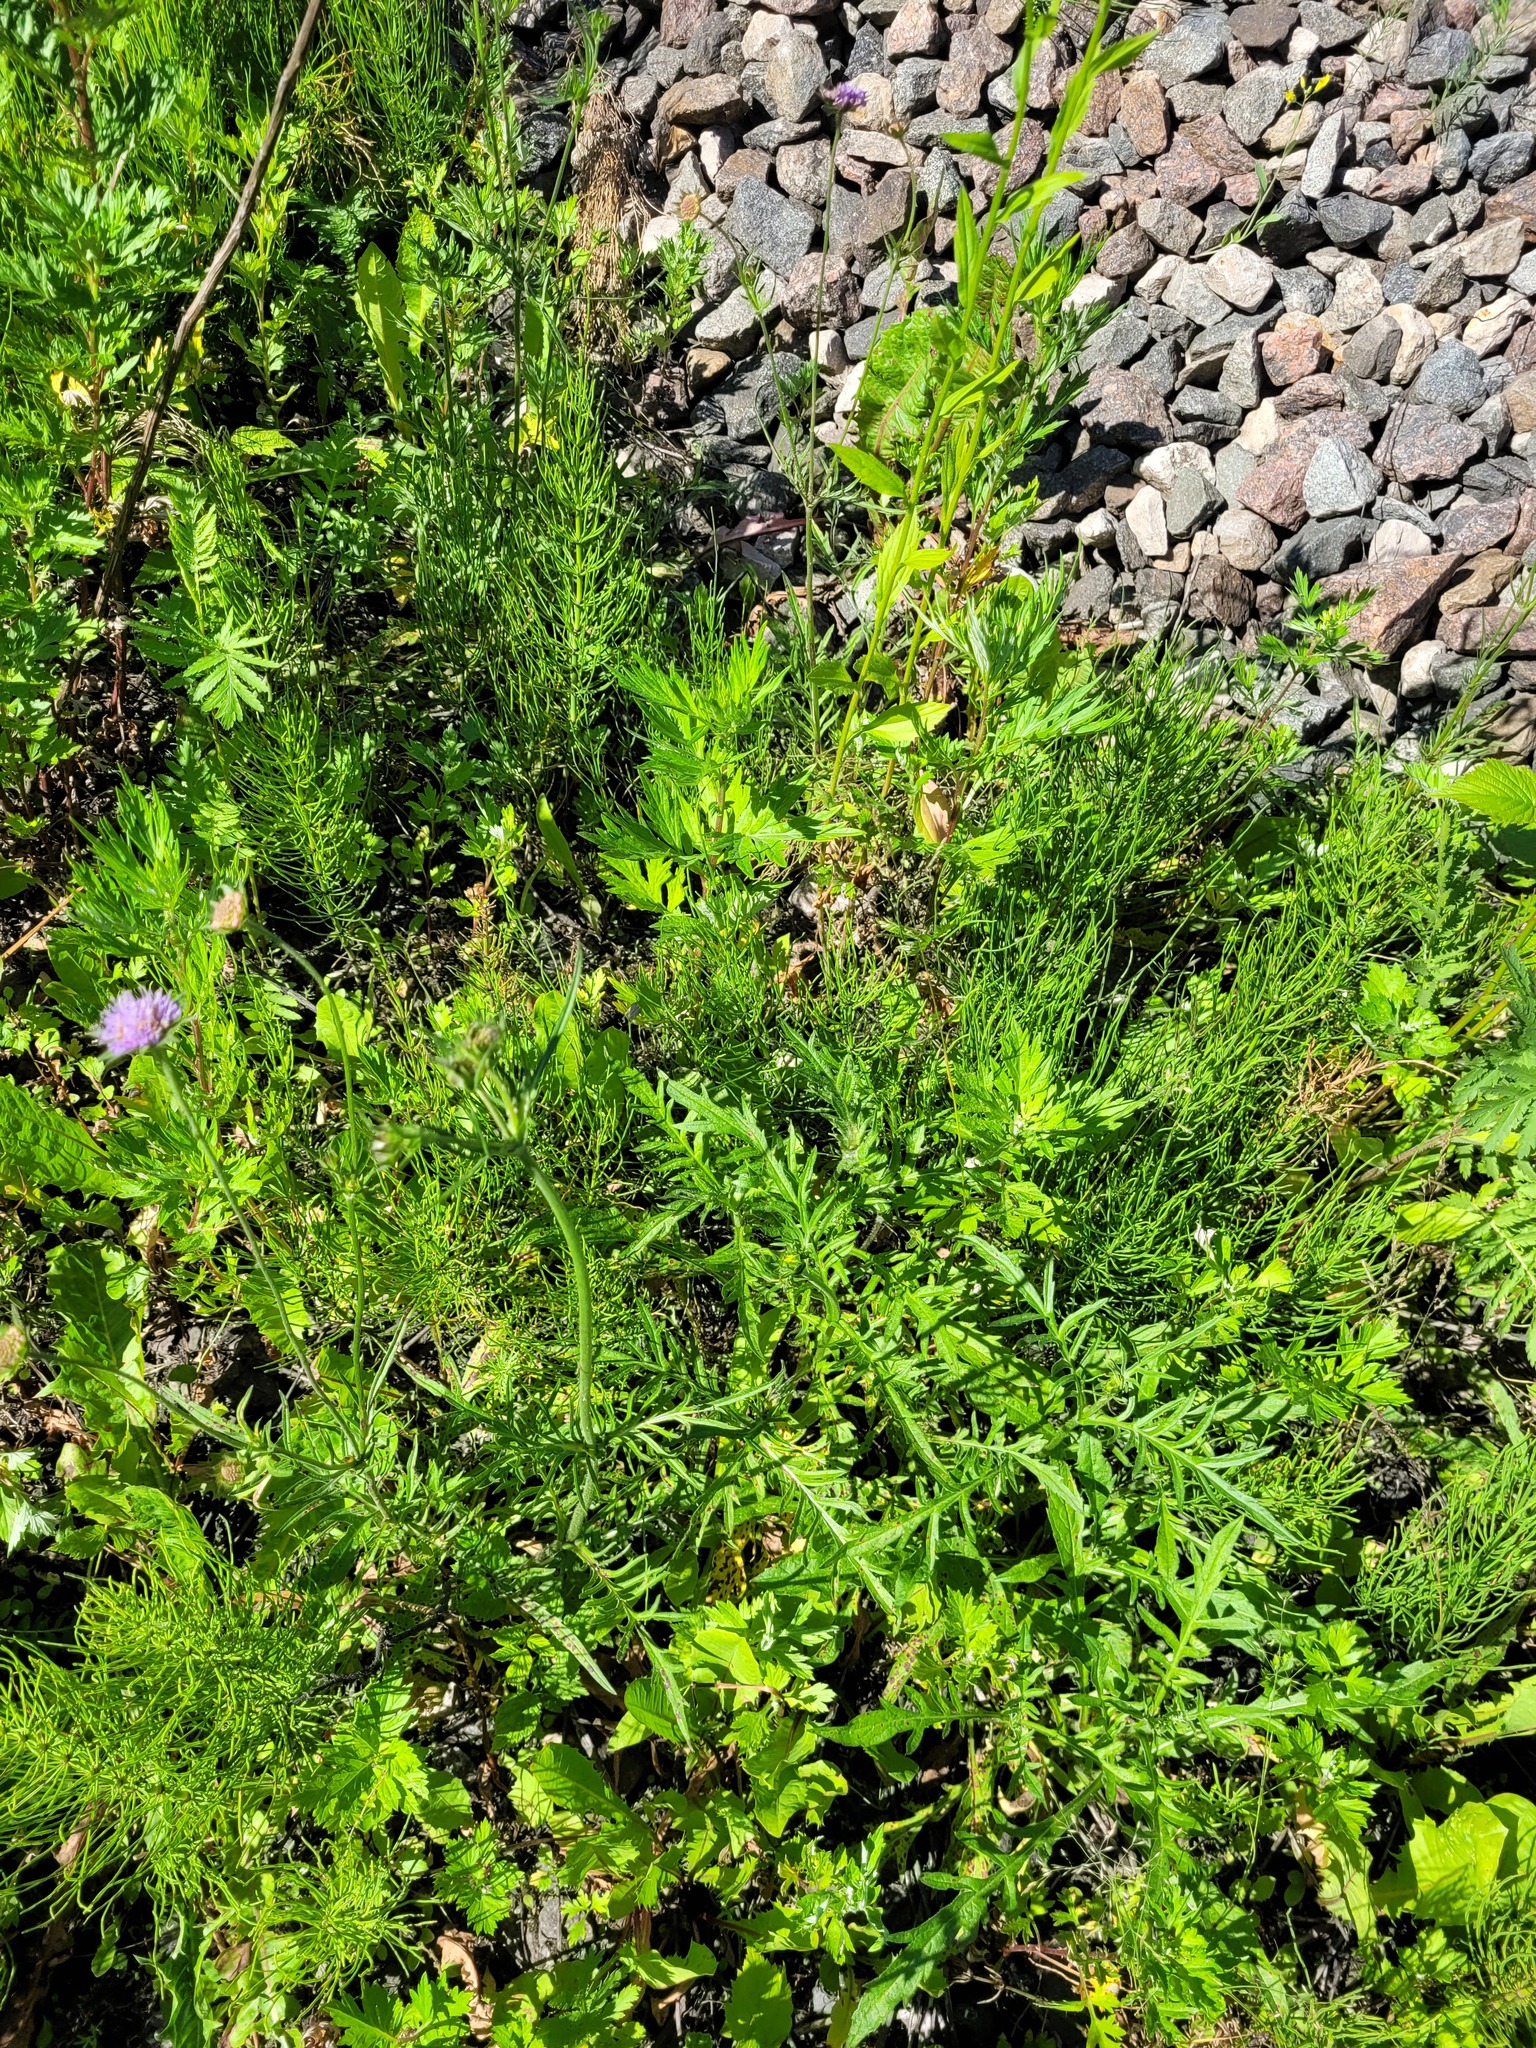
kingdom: Plantae
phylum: Tracheophyta
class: Magnoliopsida
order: Dipsacales
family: Caprifoliaceae
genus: Knautia
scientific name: Knautia arvensis
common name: Field scabiosa
